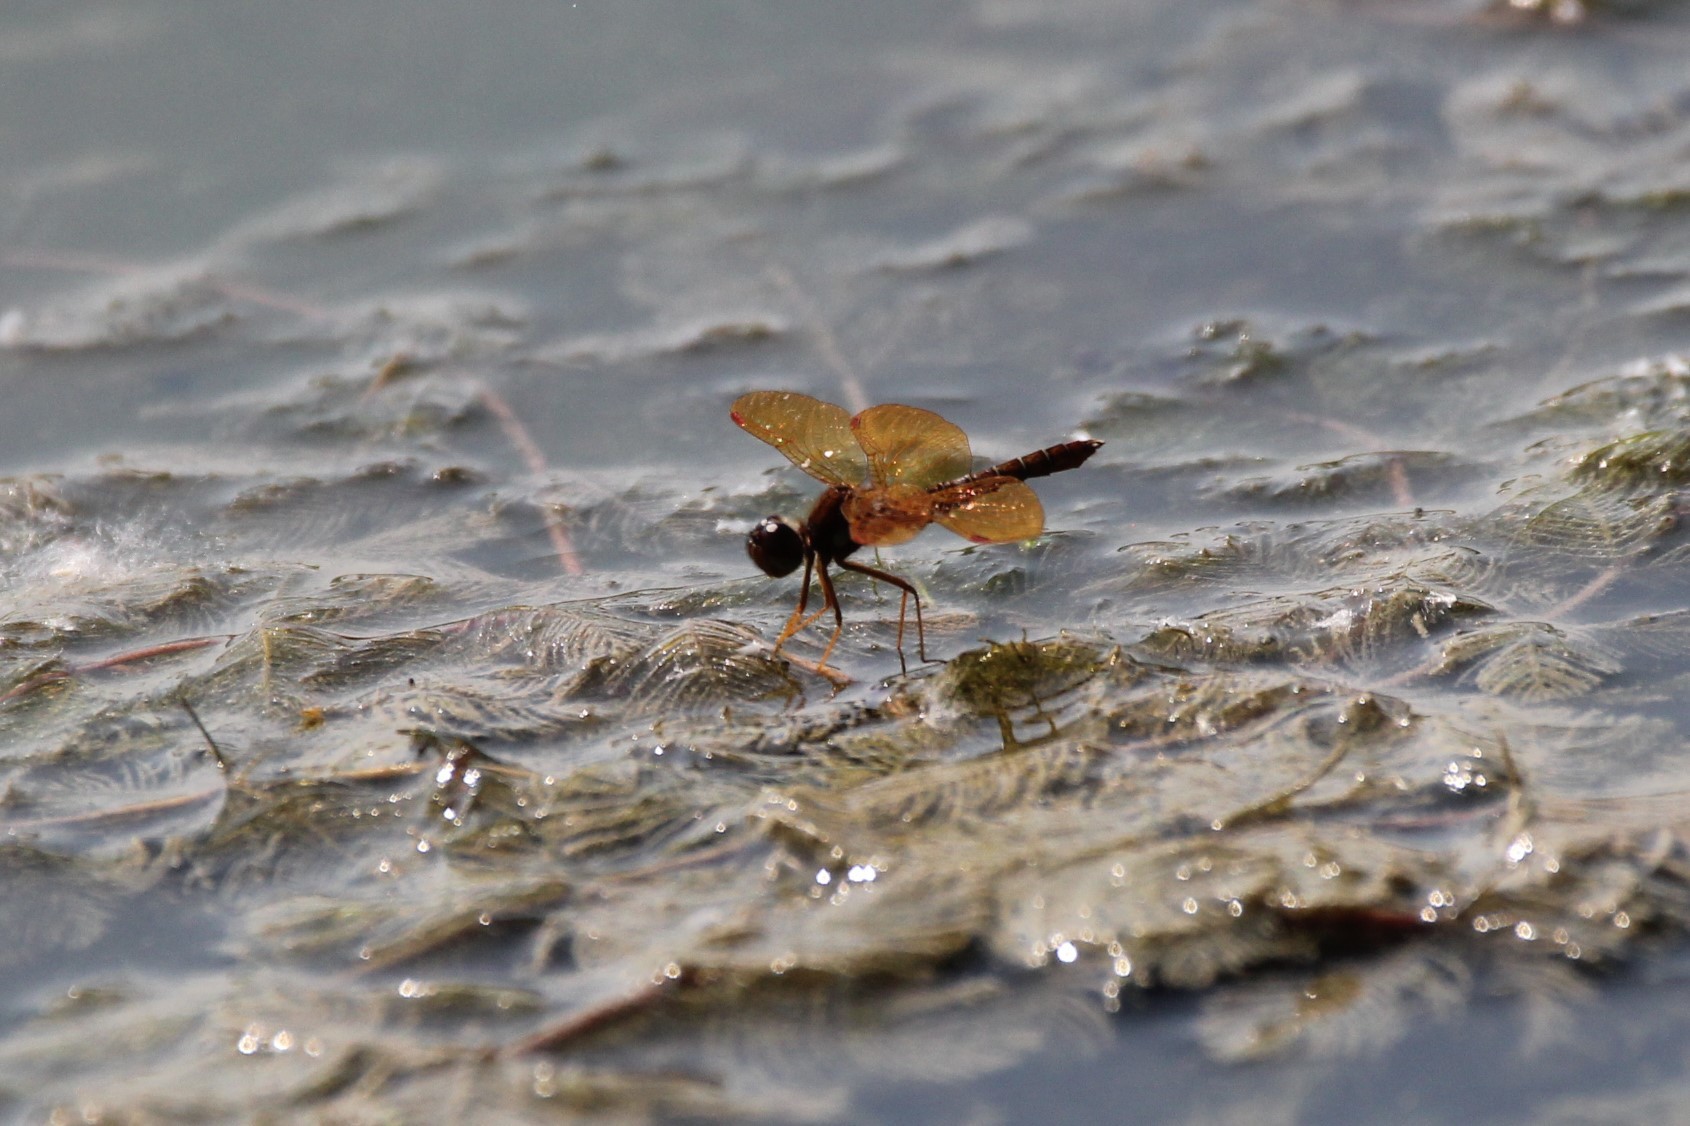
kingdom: Animalia
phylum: Arthropoda
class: Insecta
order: Odonata
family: Libellulidae
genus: Perithemis
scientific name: Perithemis tenera
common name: Eastern amberwing
